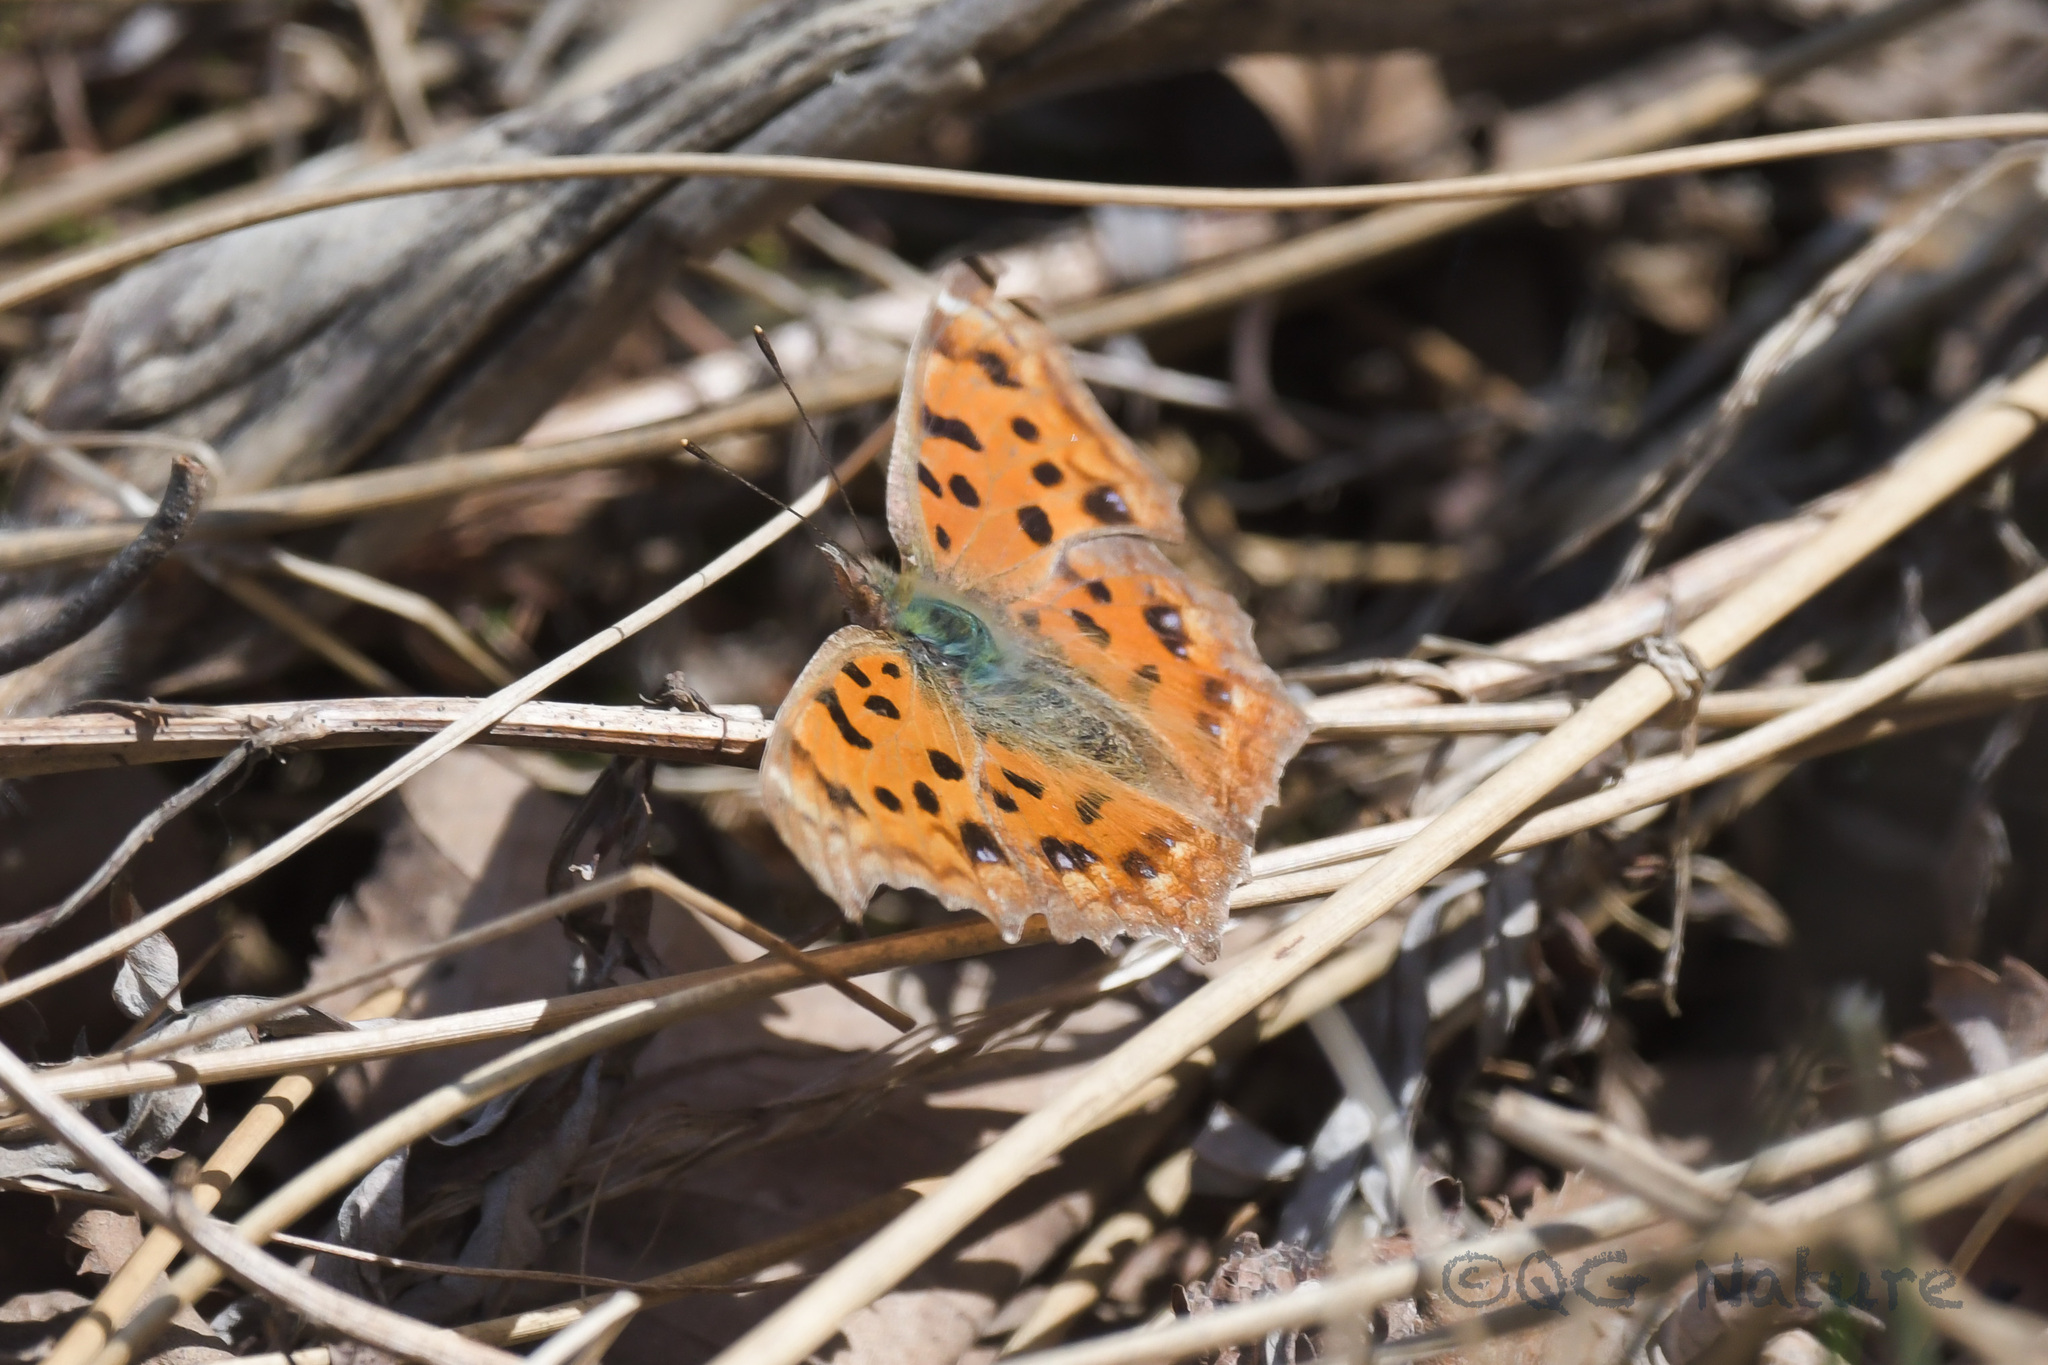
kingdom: Animalia
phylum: Arthropoda
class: Insecta
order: Lepidoptera
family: Nymphalidae
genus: Polygonia
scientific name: Polygonia c-aureum
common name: Asian comma
